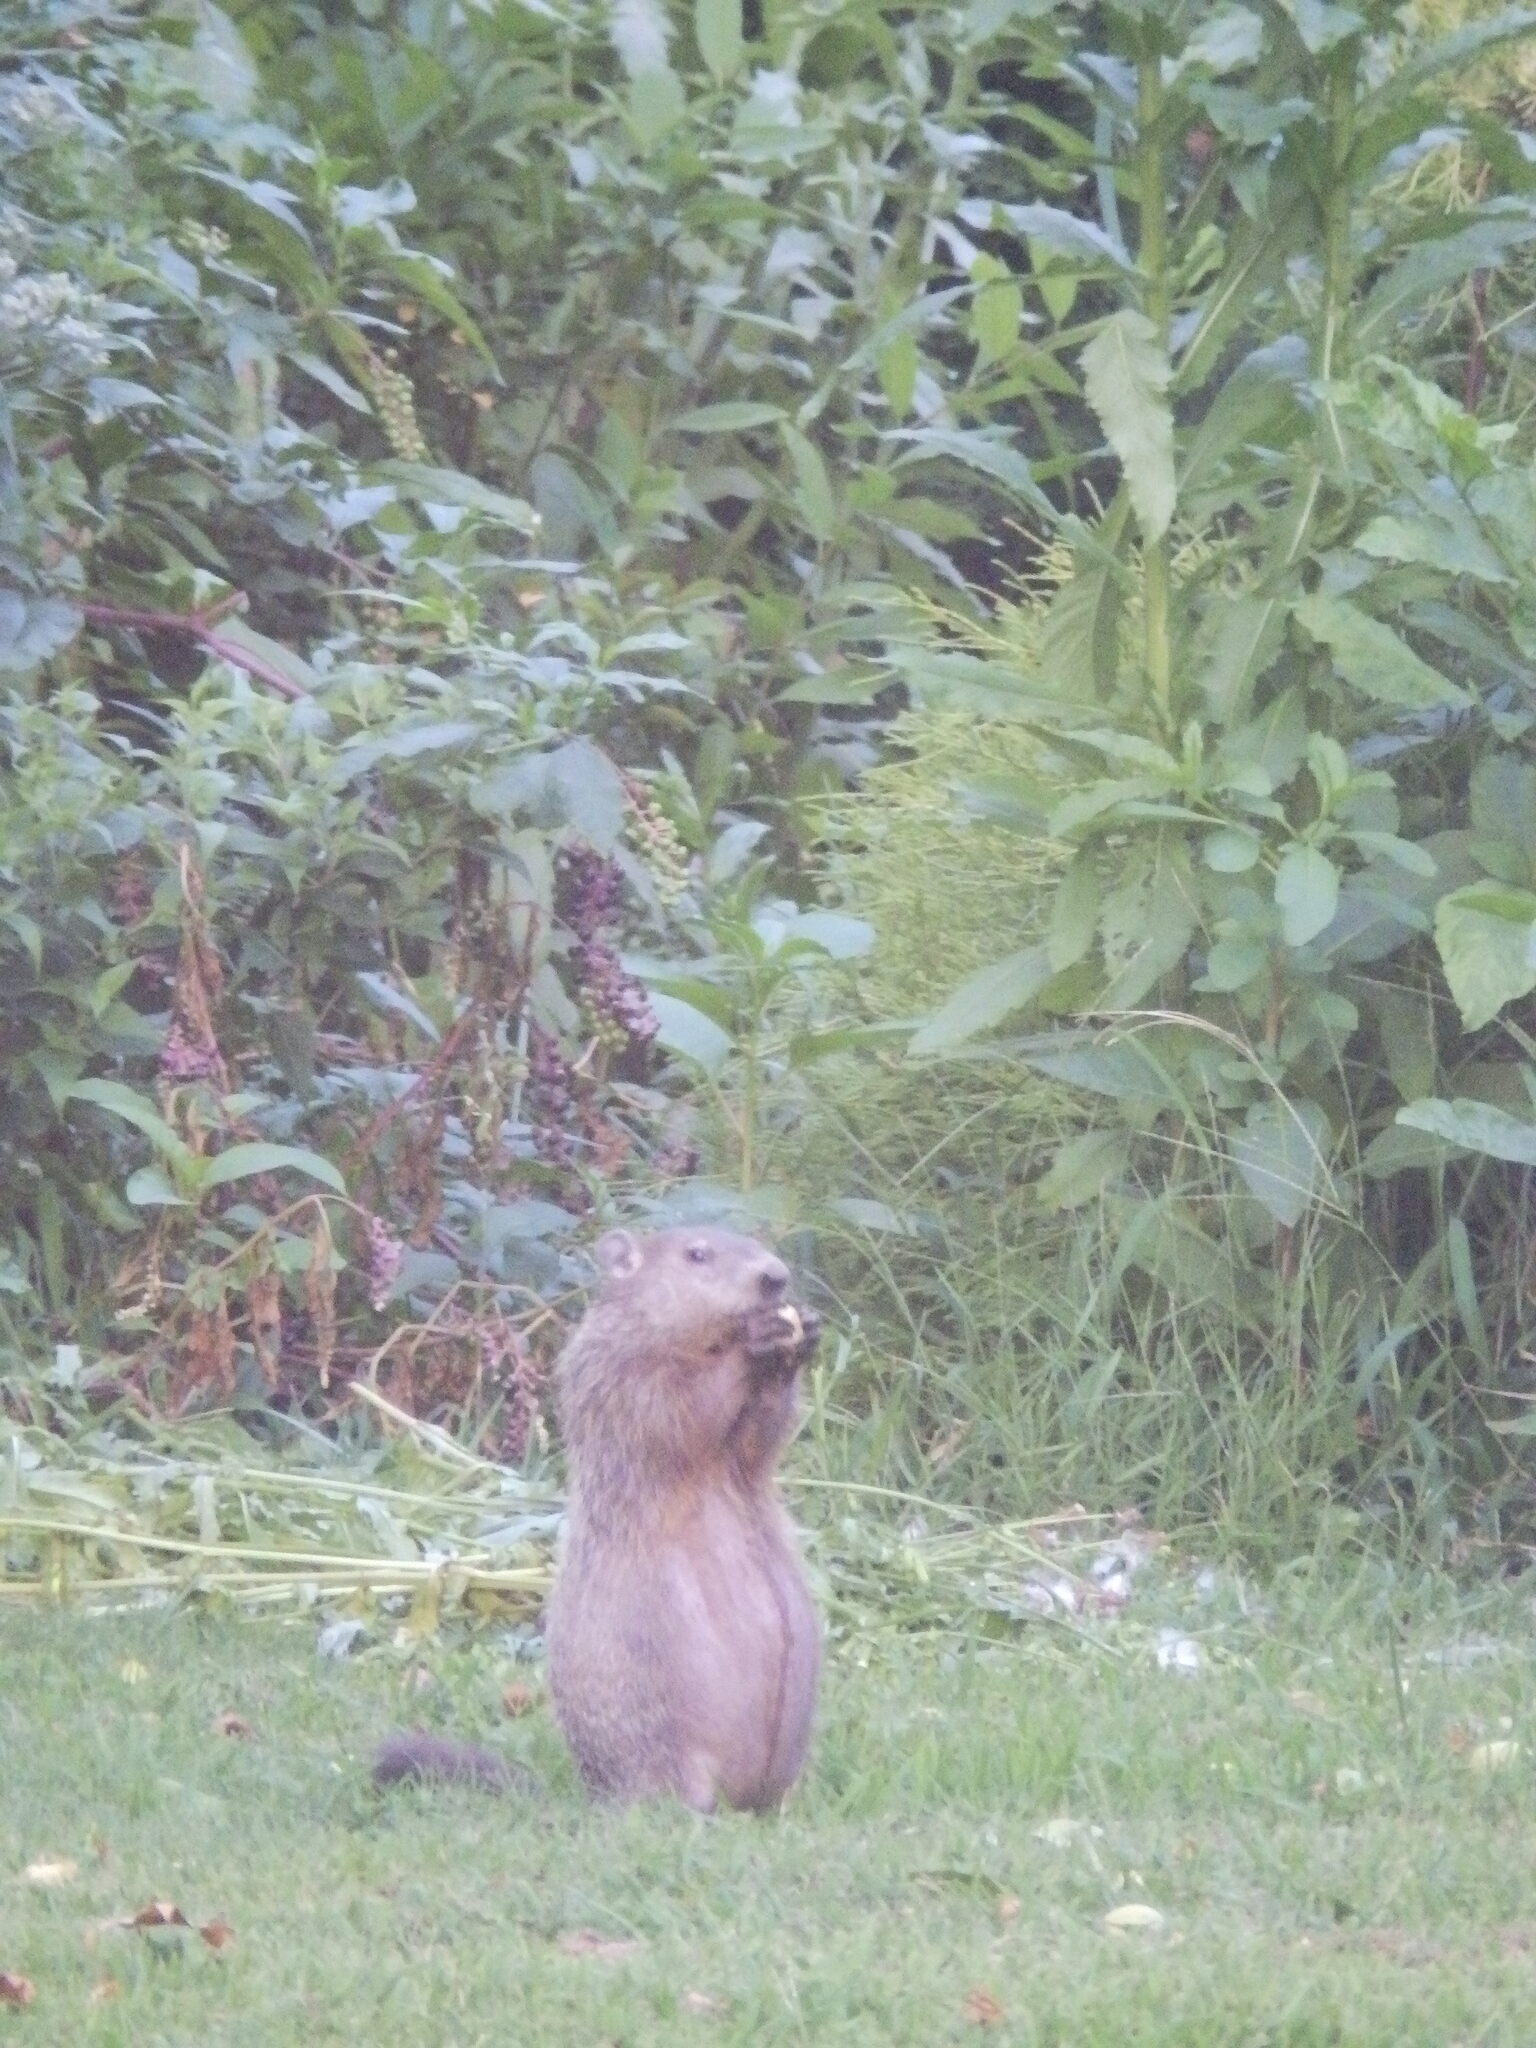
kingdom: Animalia
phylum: Chordata
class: Mammalia
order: Rodentia
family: Sciuridae
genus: Marmota
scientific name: Marmota monax
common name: Groundhog
